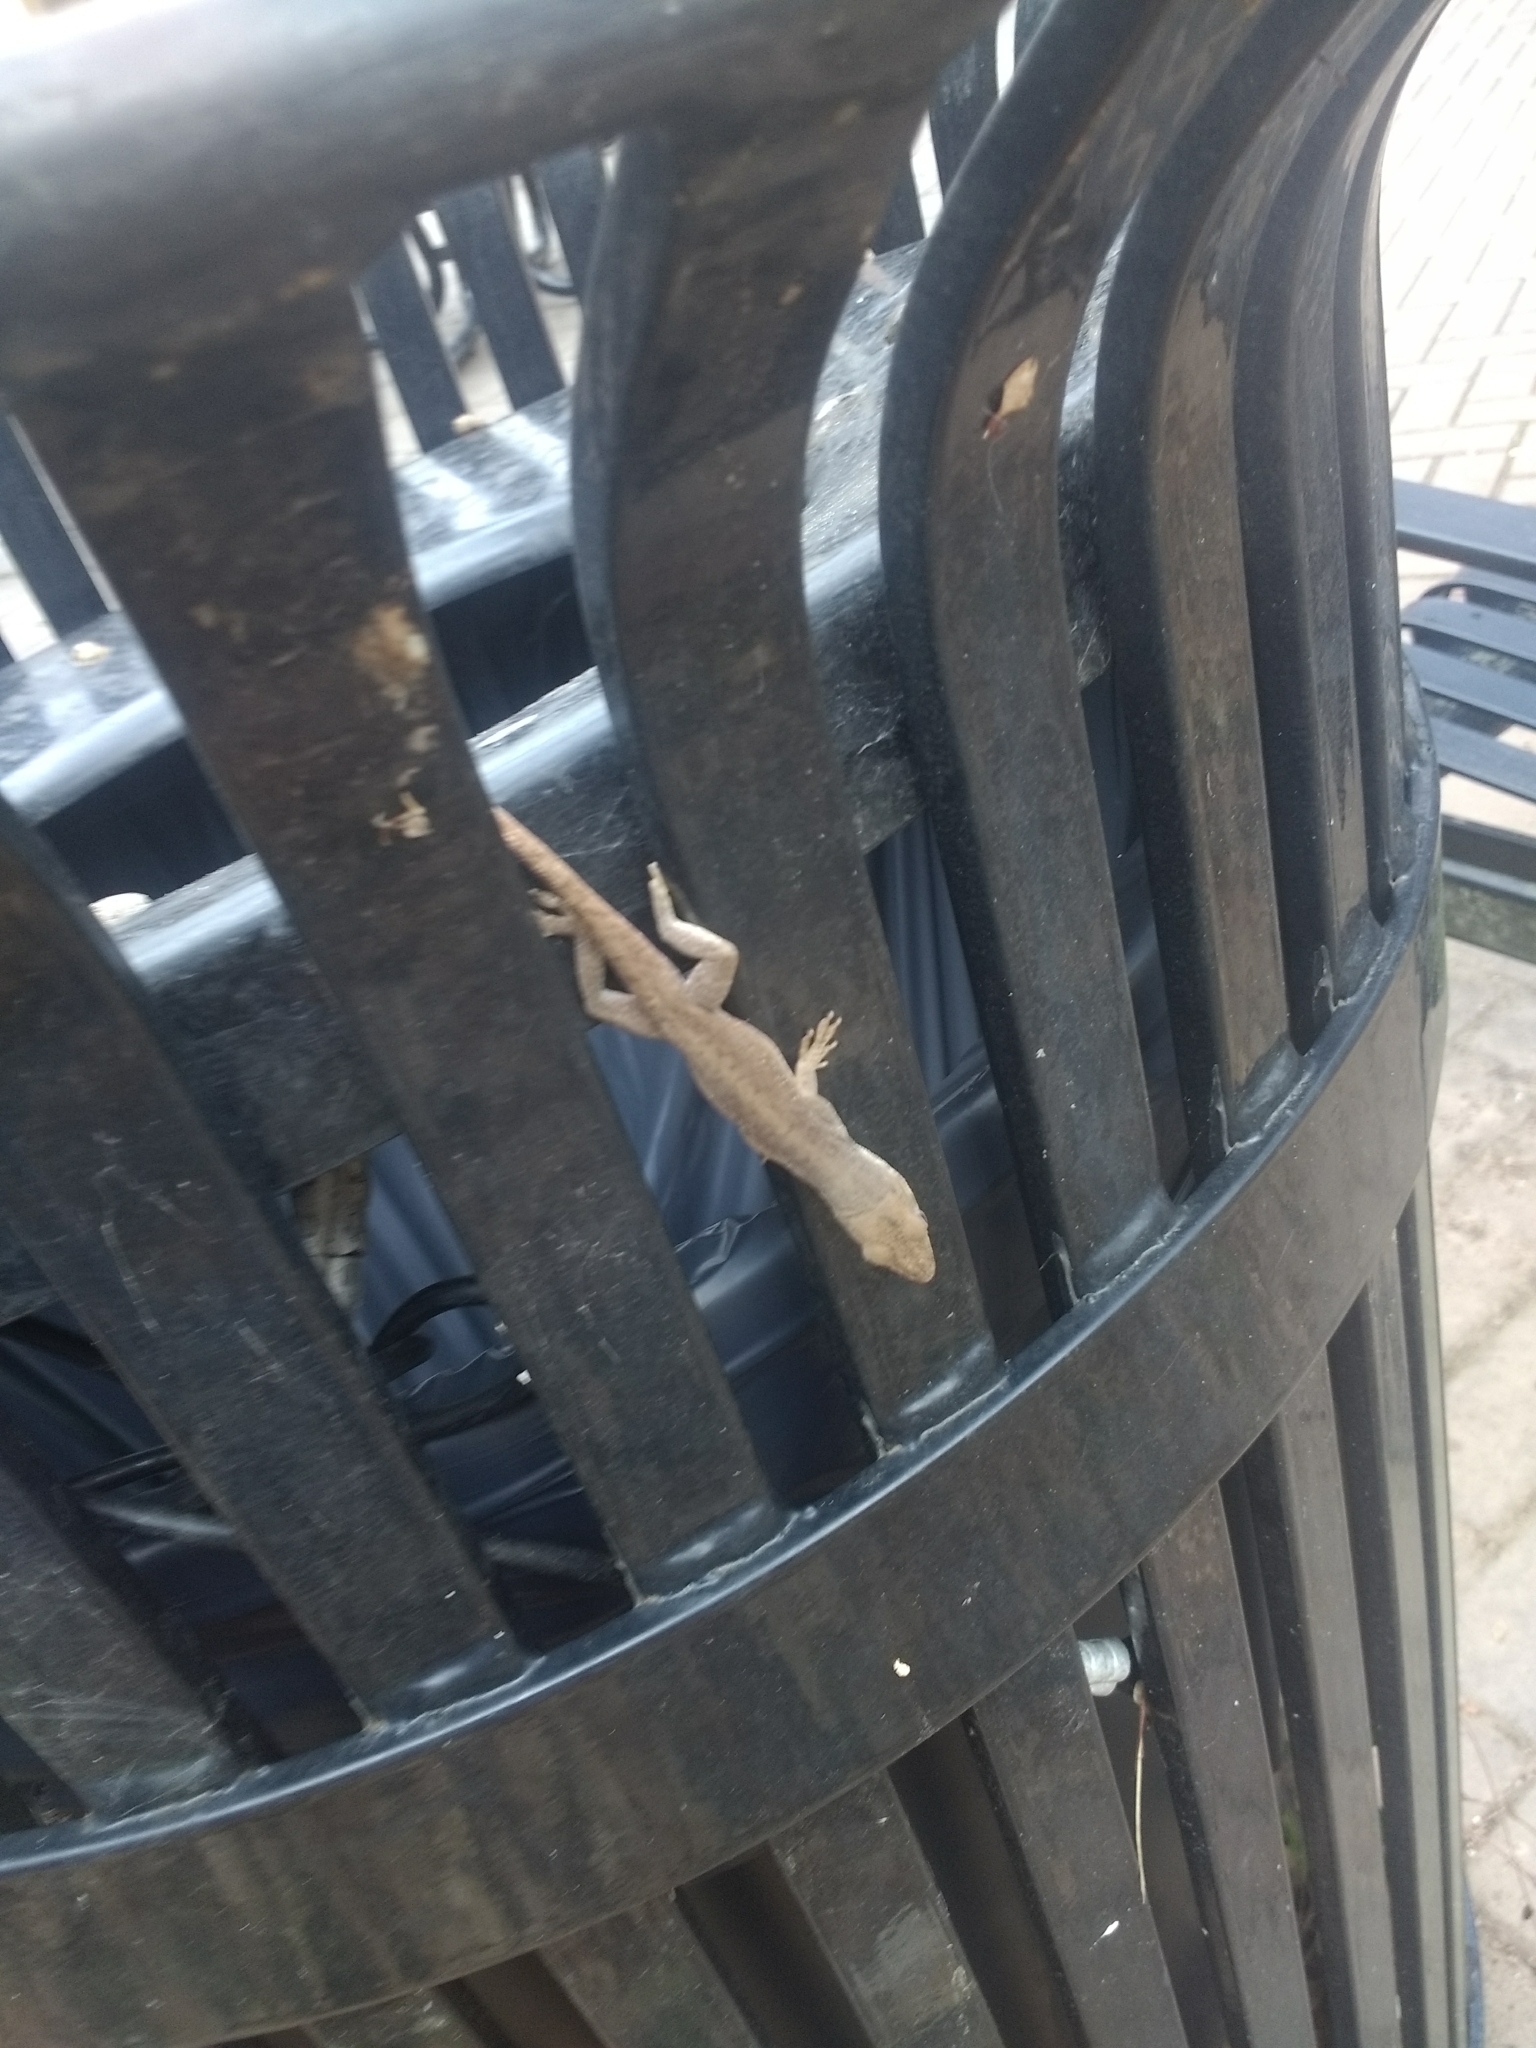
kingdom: Animalia
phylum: Chordata
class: Squamata
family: Dactyloidae
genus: Anolis
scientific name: Anolis carolinensis
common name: Green anole
